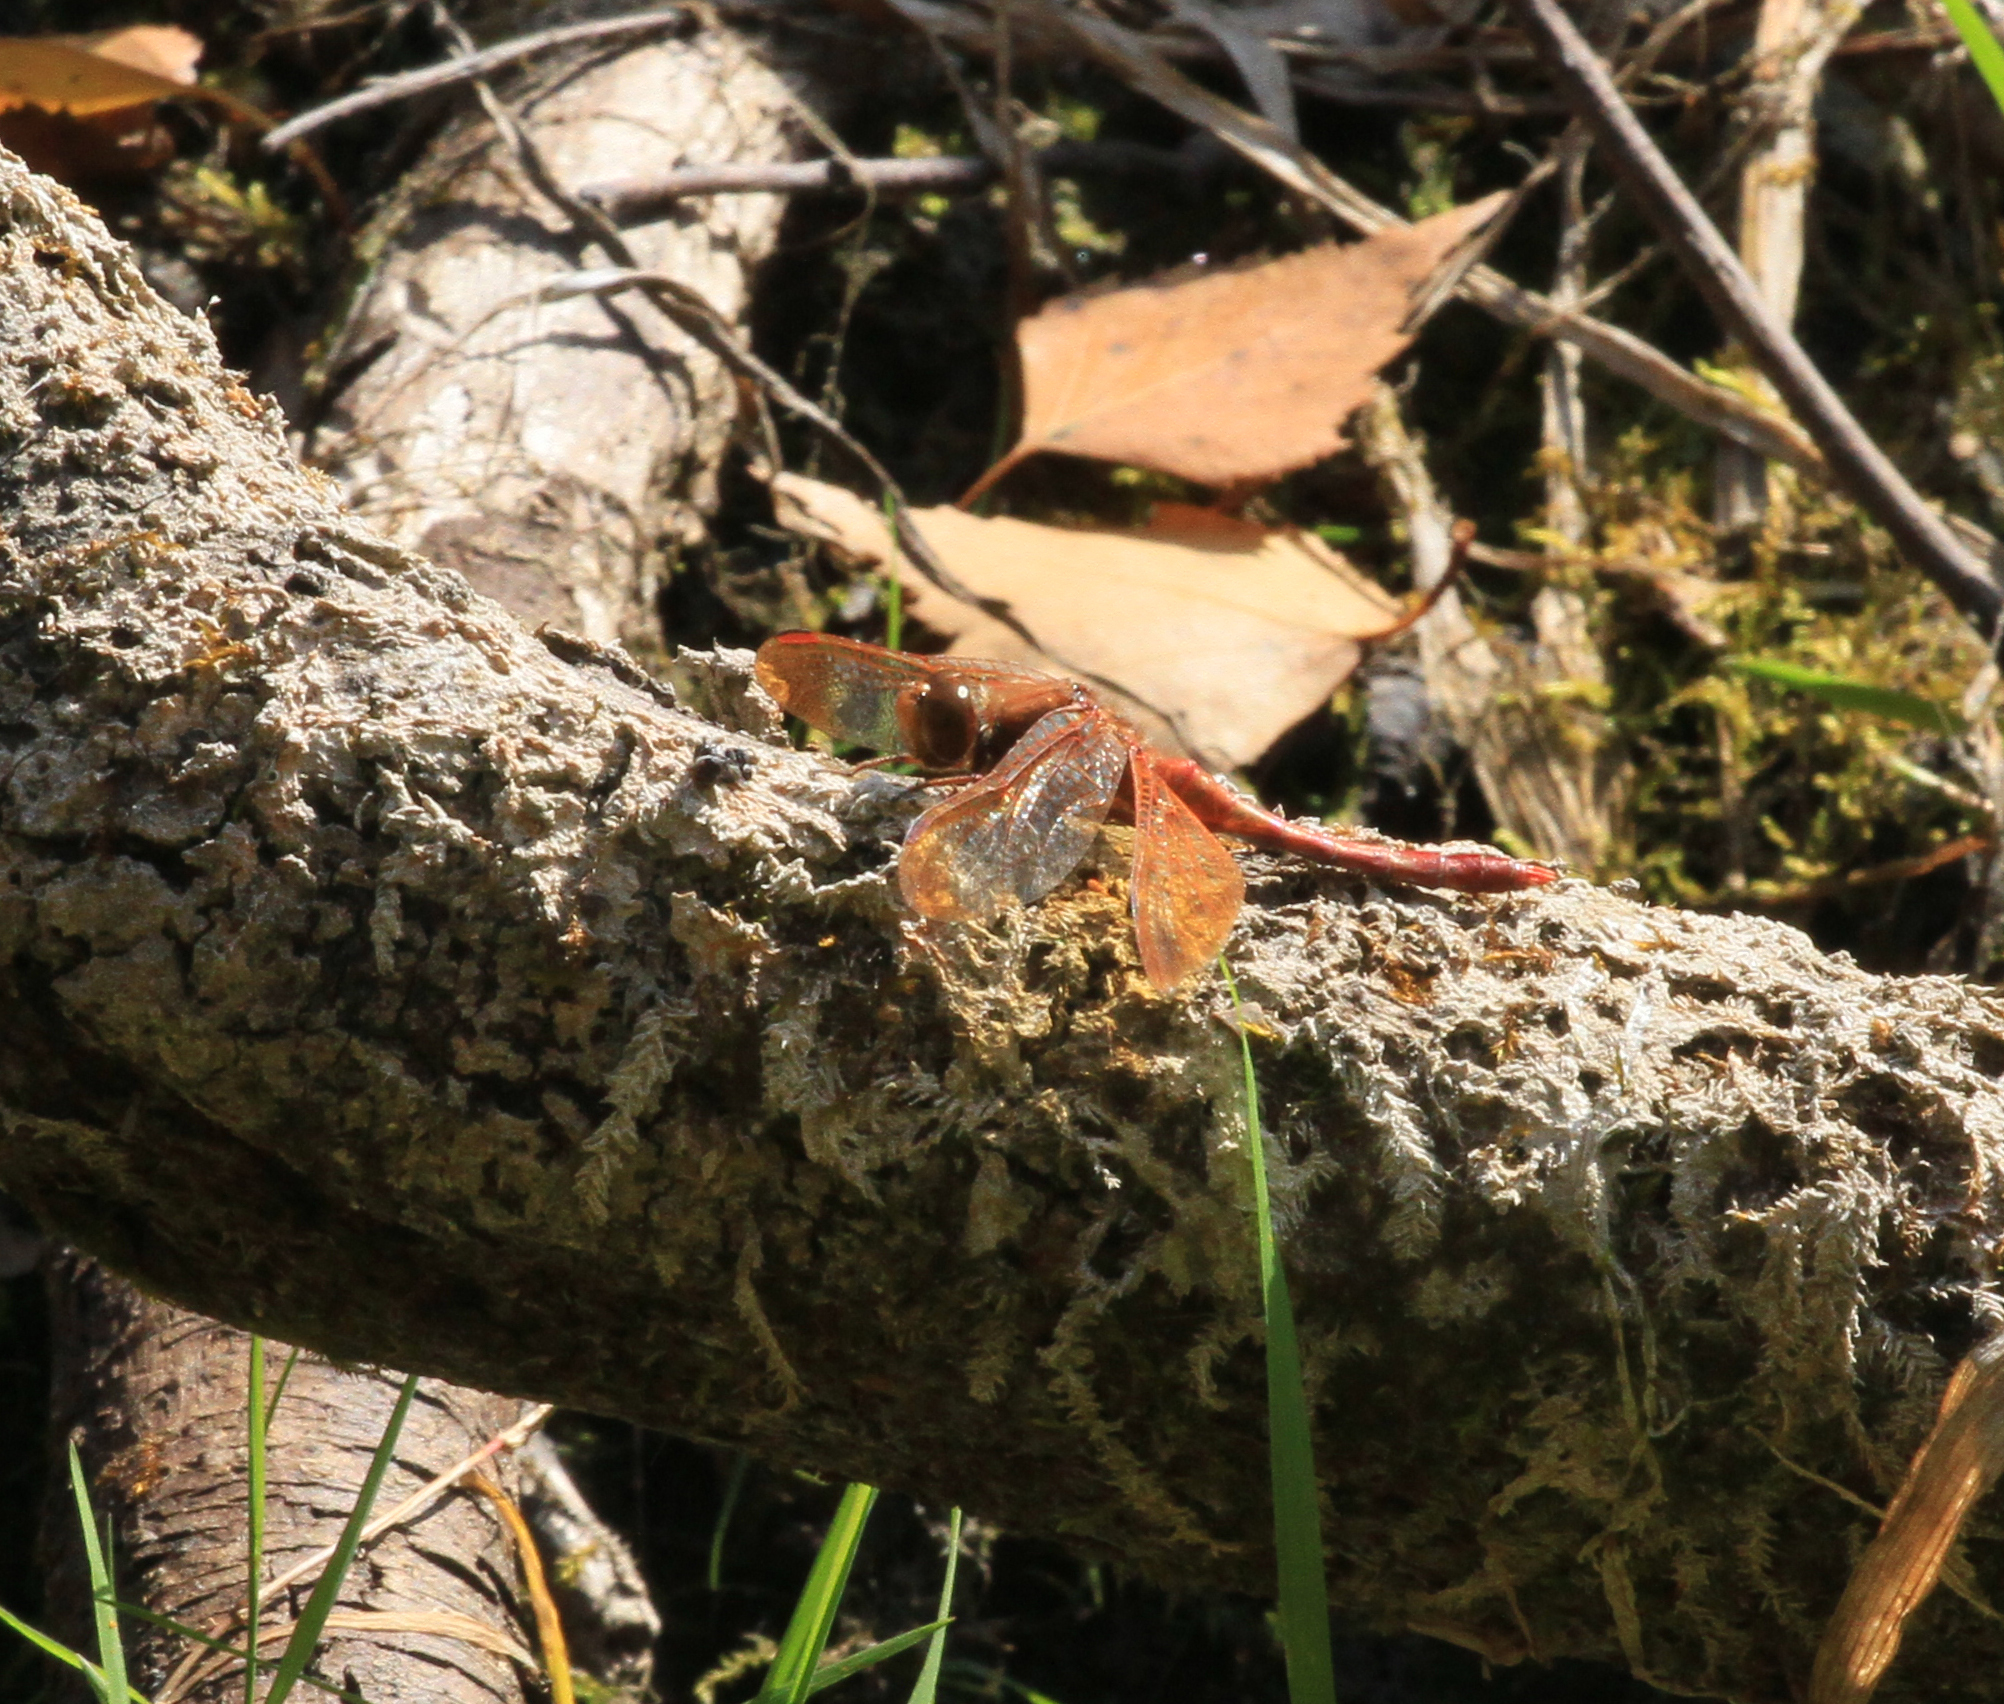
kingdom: Animalia
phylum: Arthropoda
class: Insecta
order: Odonata
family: Libellulidae
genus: Sympetrum
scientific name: Sympetrum croceolum
